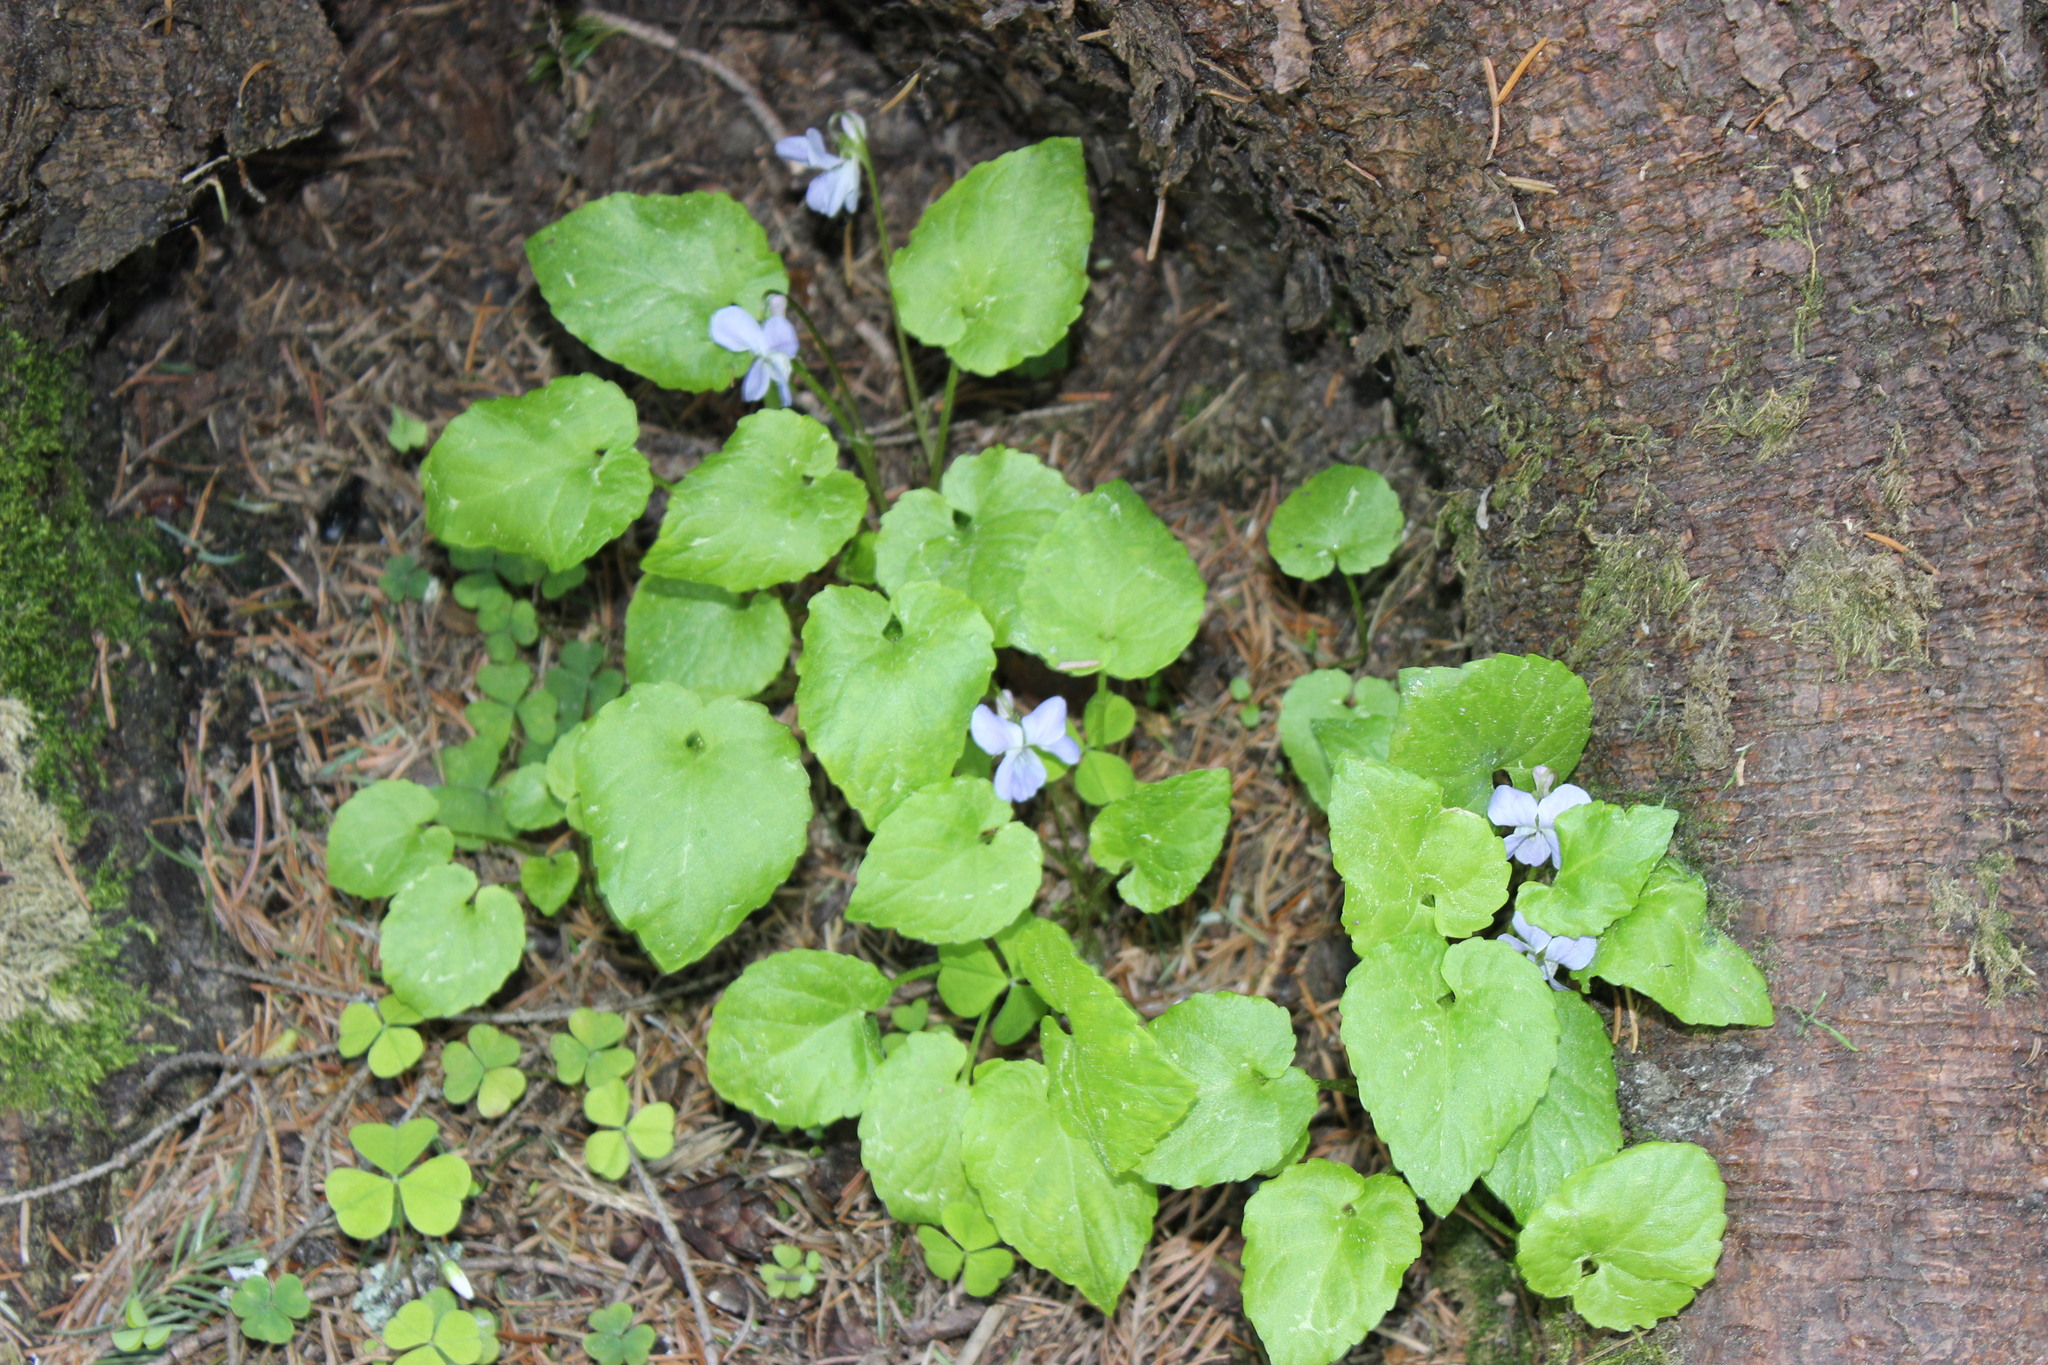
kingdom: Plantae
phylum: Tracheophyta
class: Magnoliopsida
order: Malpighiales
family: Violaceae
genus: Viola
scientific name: Viola selkirkii
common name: Selkirk's violet
